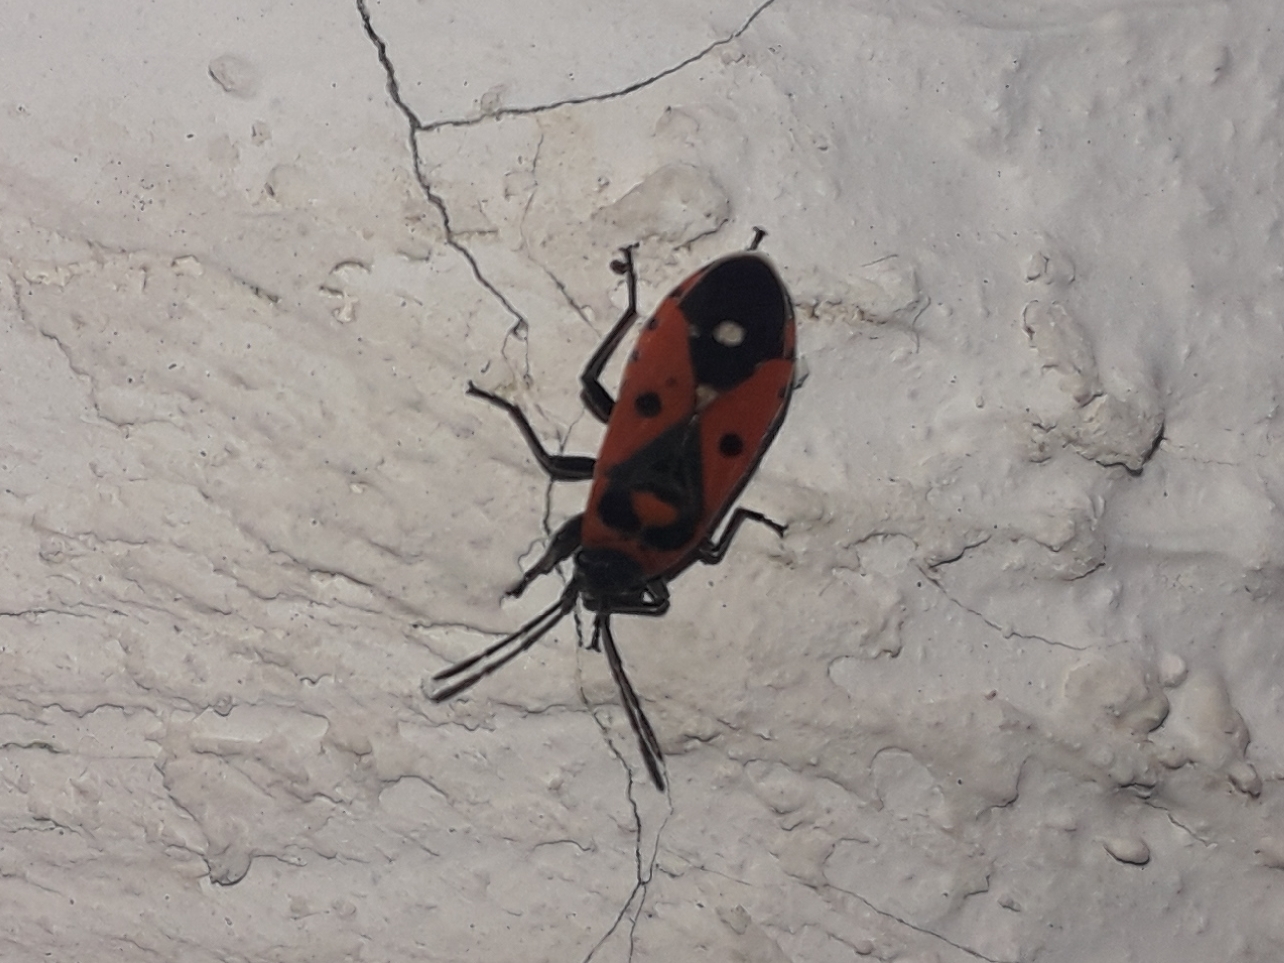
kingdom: Animalia
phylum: Arthropoda
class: Insecta
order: Hemiptera
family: Lygaeidae
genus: Melanocoryphus
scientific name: Melanocoryphus albomaculatus
